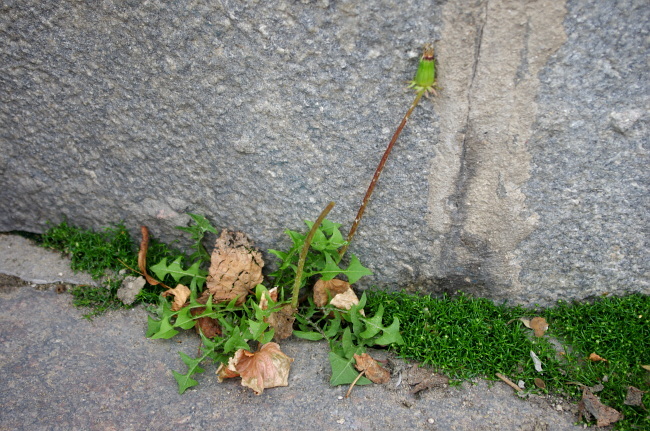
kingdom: Plantae
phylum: Tracheophyta
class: Magnoliopsida
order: Asterales
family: Asteraceae
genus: Taraxacum
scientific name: Taraxacum officinale
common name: Common dandelion
